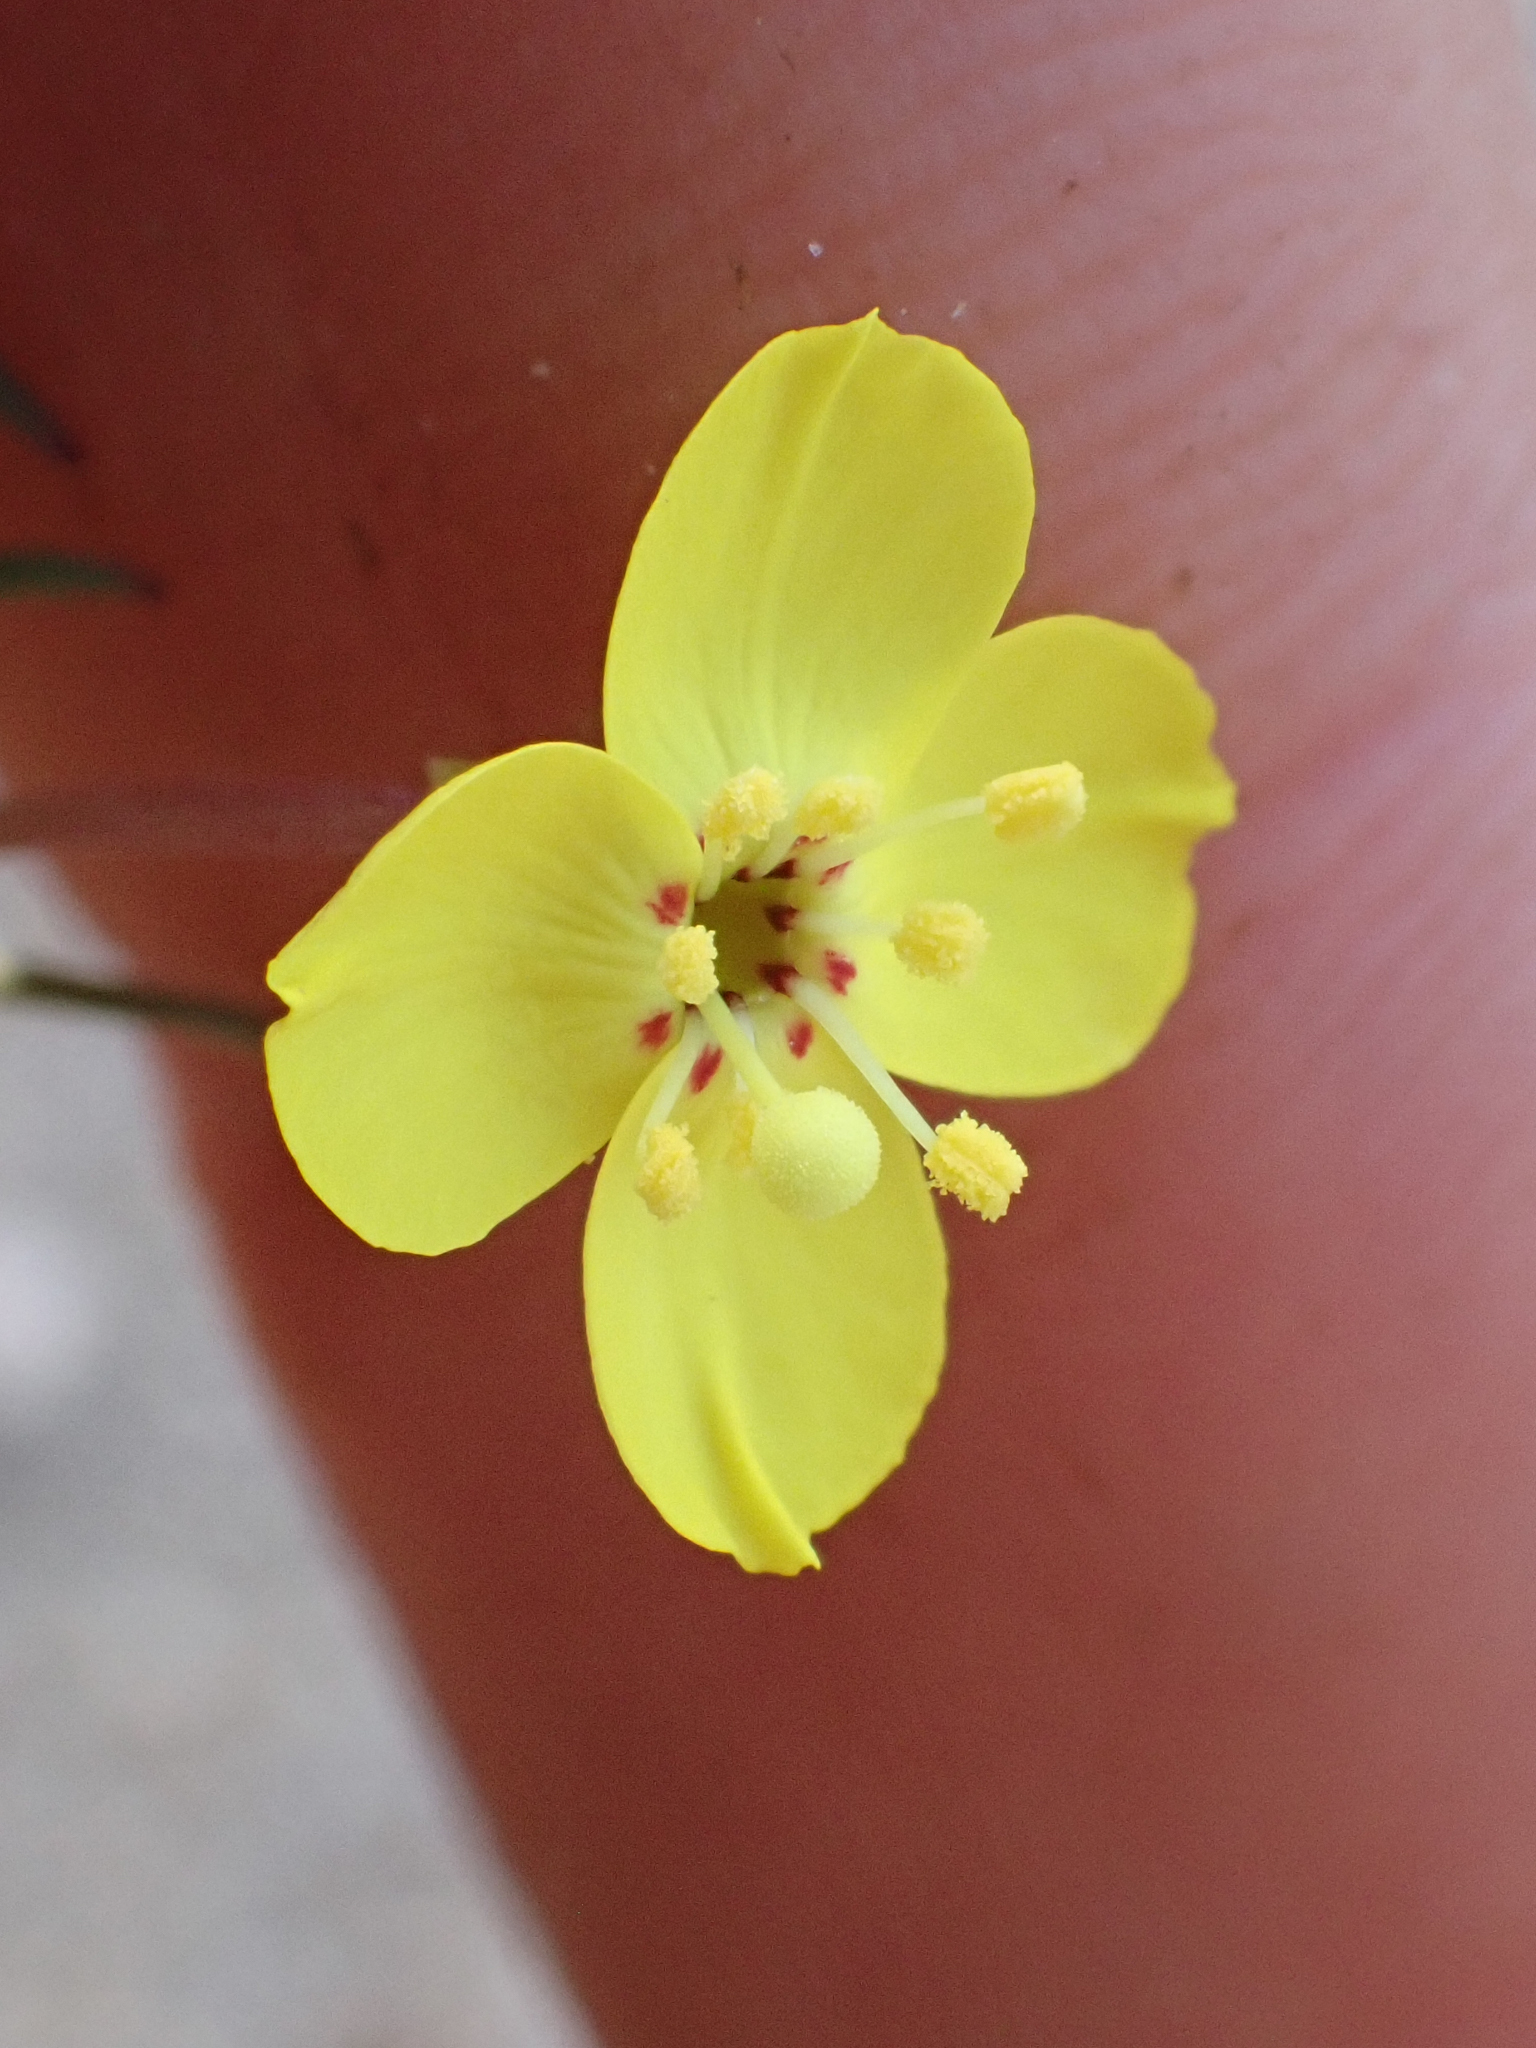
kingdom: Plantae
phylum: Tracheophyta
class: Magnoliopsida
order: Myrtales
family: Onagraceae
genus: Camissonia
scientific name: Camissonia integrifolia
